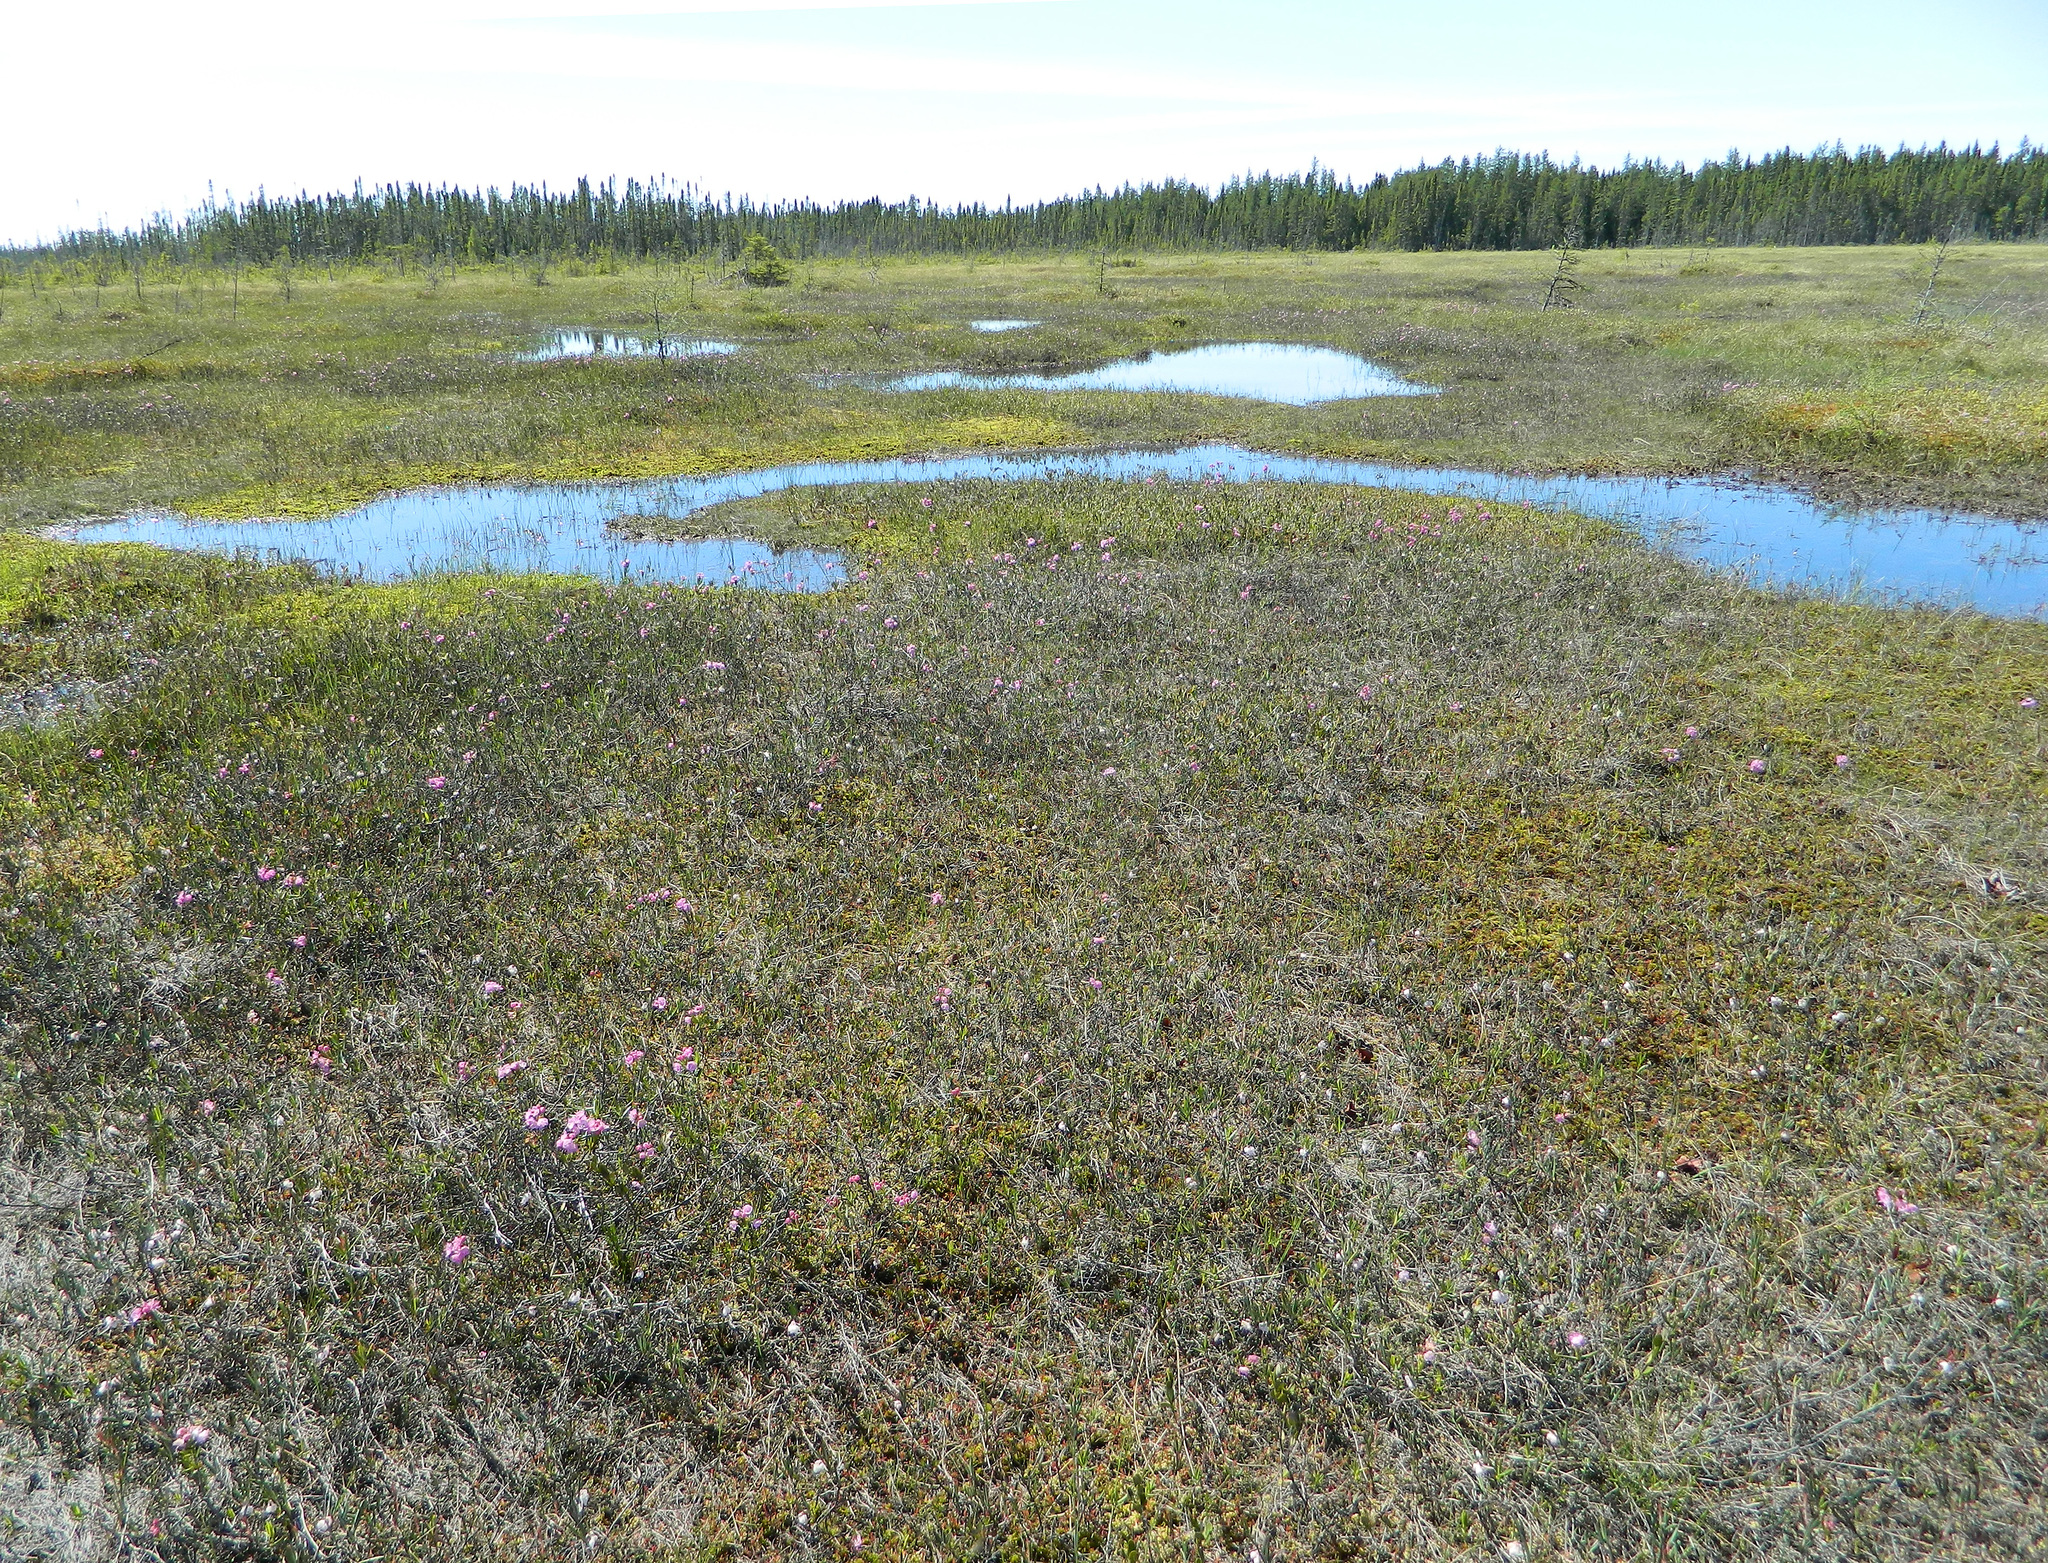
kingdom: Plantae
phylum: Tracheophyta
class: Magnoliopsida
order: Ericales
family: Ericaceae
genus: Kalmia
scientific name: Kalmia polifolia
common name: Bog-laurel
